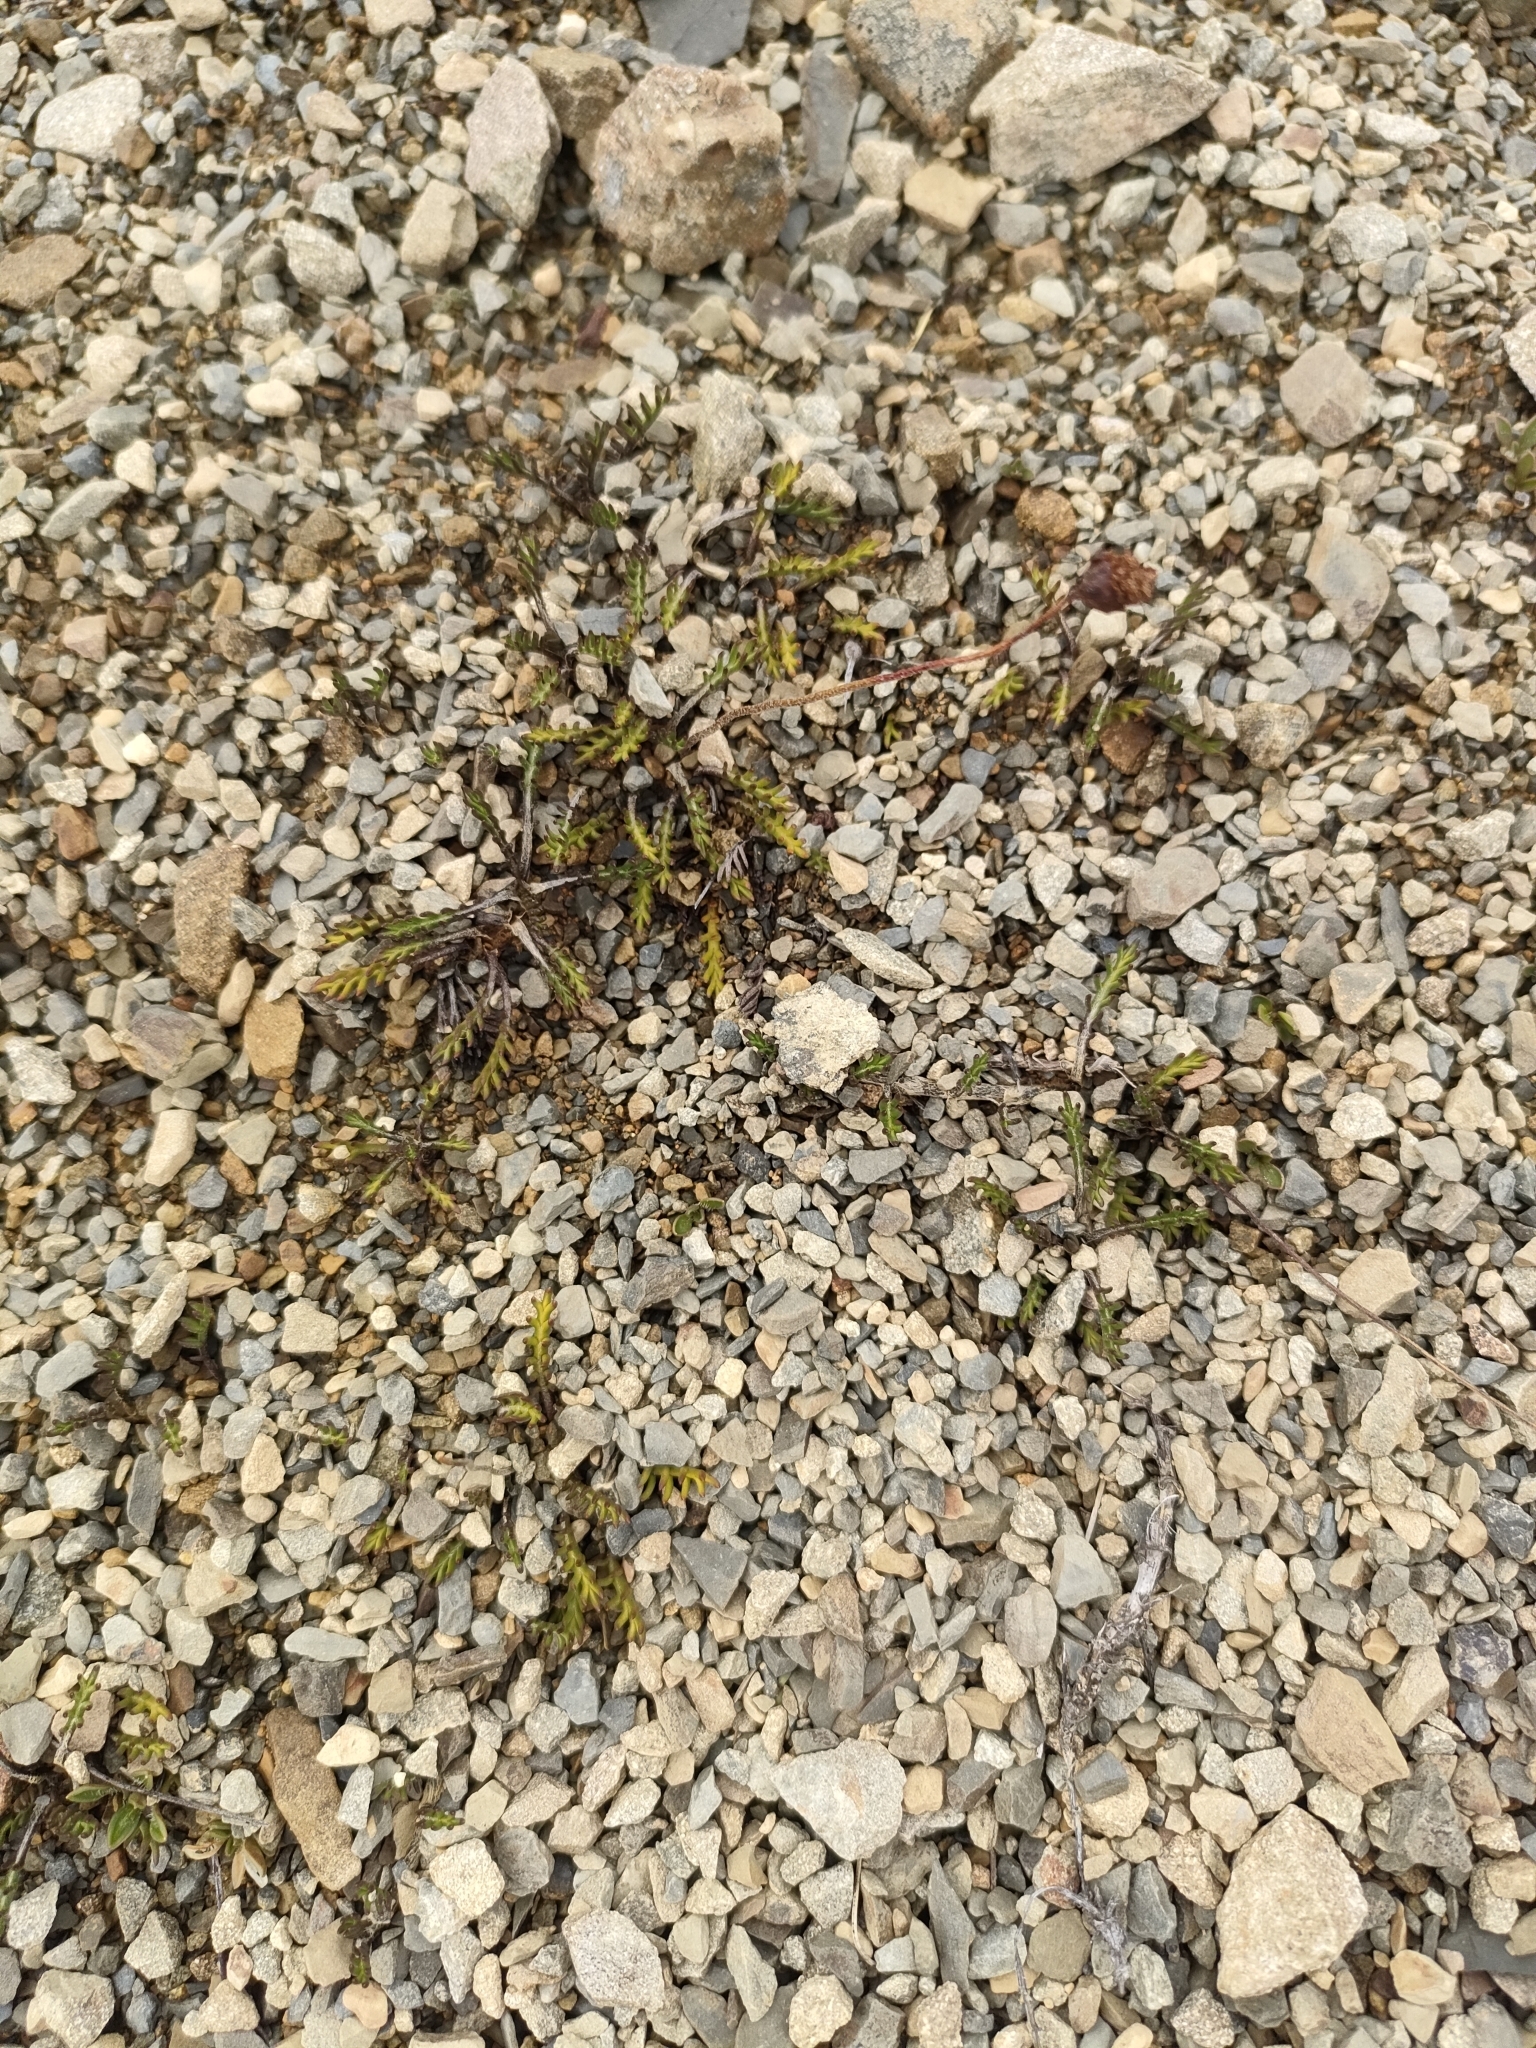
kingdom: Plantae
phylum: Tracheophyta
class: Magnoliopsida
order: Asterales
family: Asteraceae
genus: Leptinella
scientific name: Leptinella pectinata
